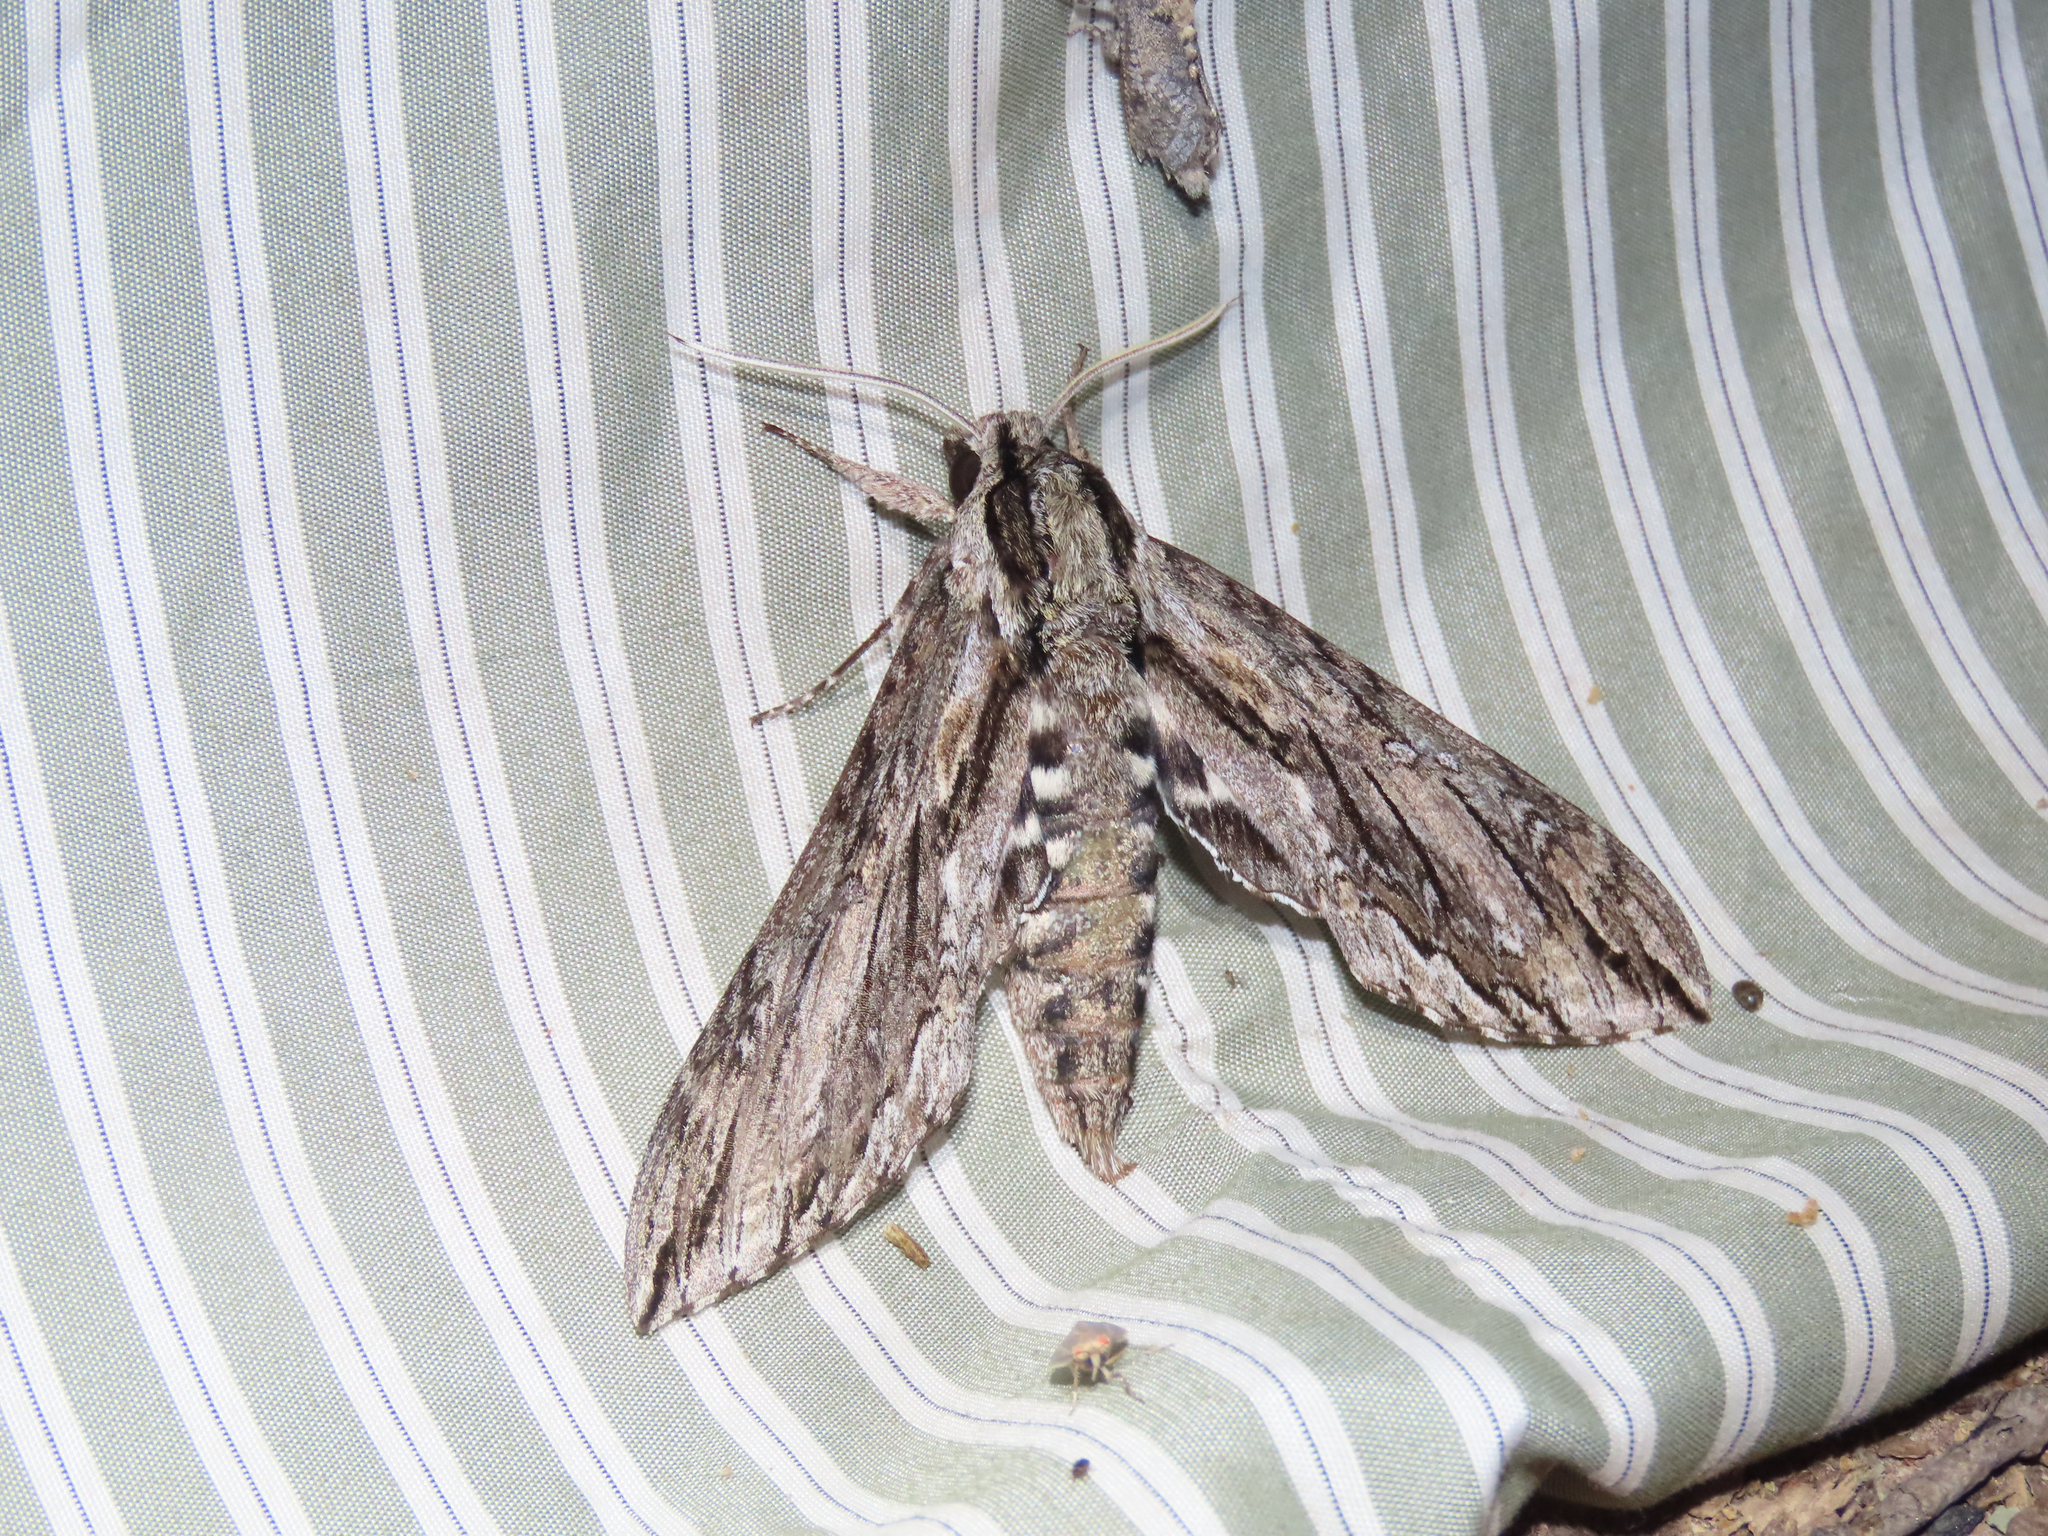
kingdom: Animalia
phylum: Arthropoda
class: Insecta
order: Lepidoptera
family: Sphingidae
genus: Lintneria
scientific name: Lintneria istar
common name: Istar sphinx
